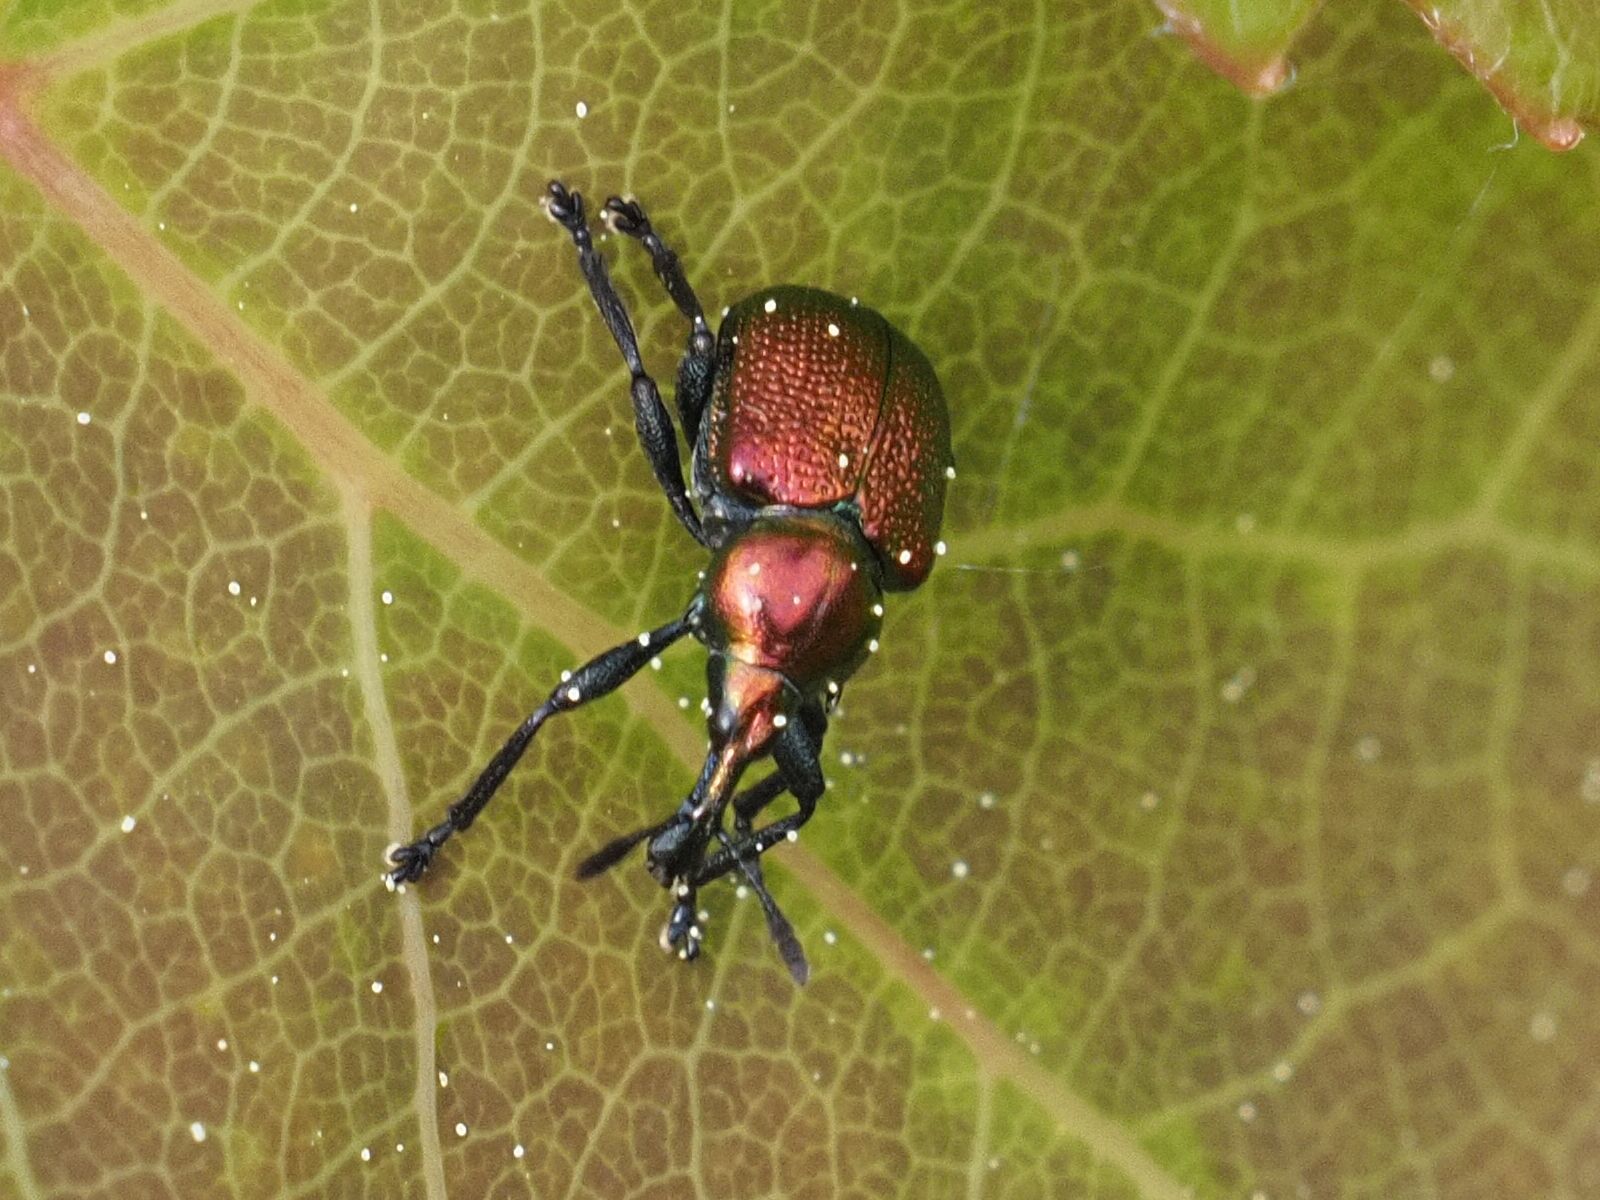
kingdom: Animalia
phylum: Arthropoda
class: Insecta
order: Coleoptera
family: Attelabidae
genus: Byctiscus
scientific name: Byctiscus populi
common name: Leaf-rolling weevil
